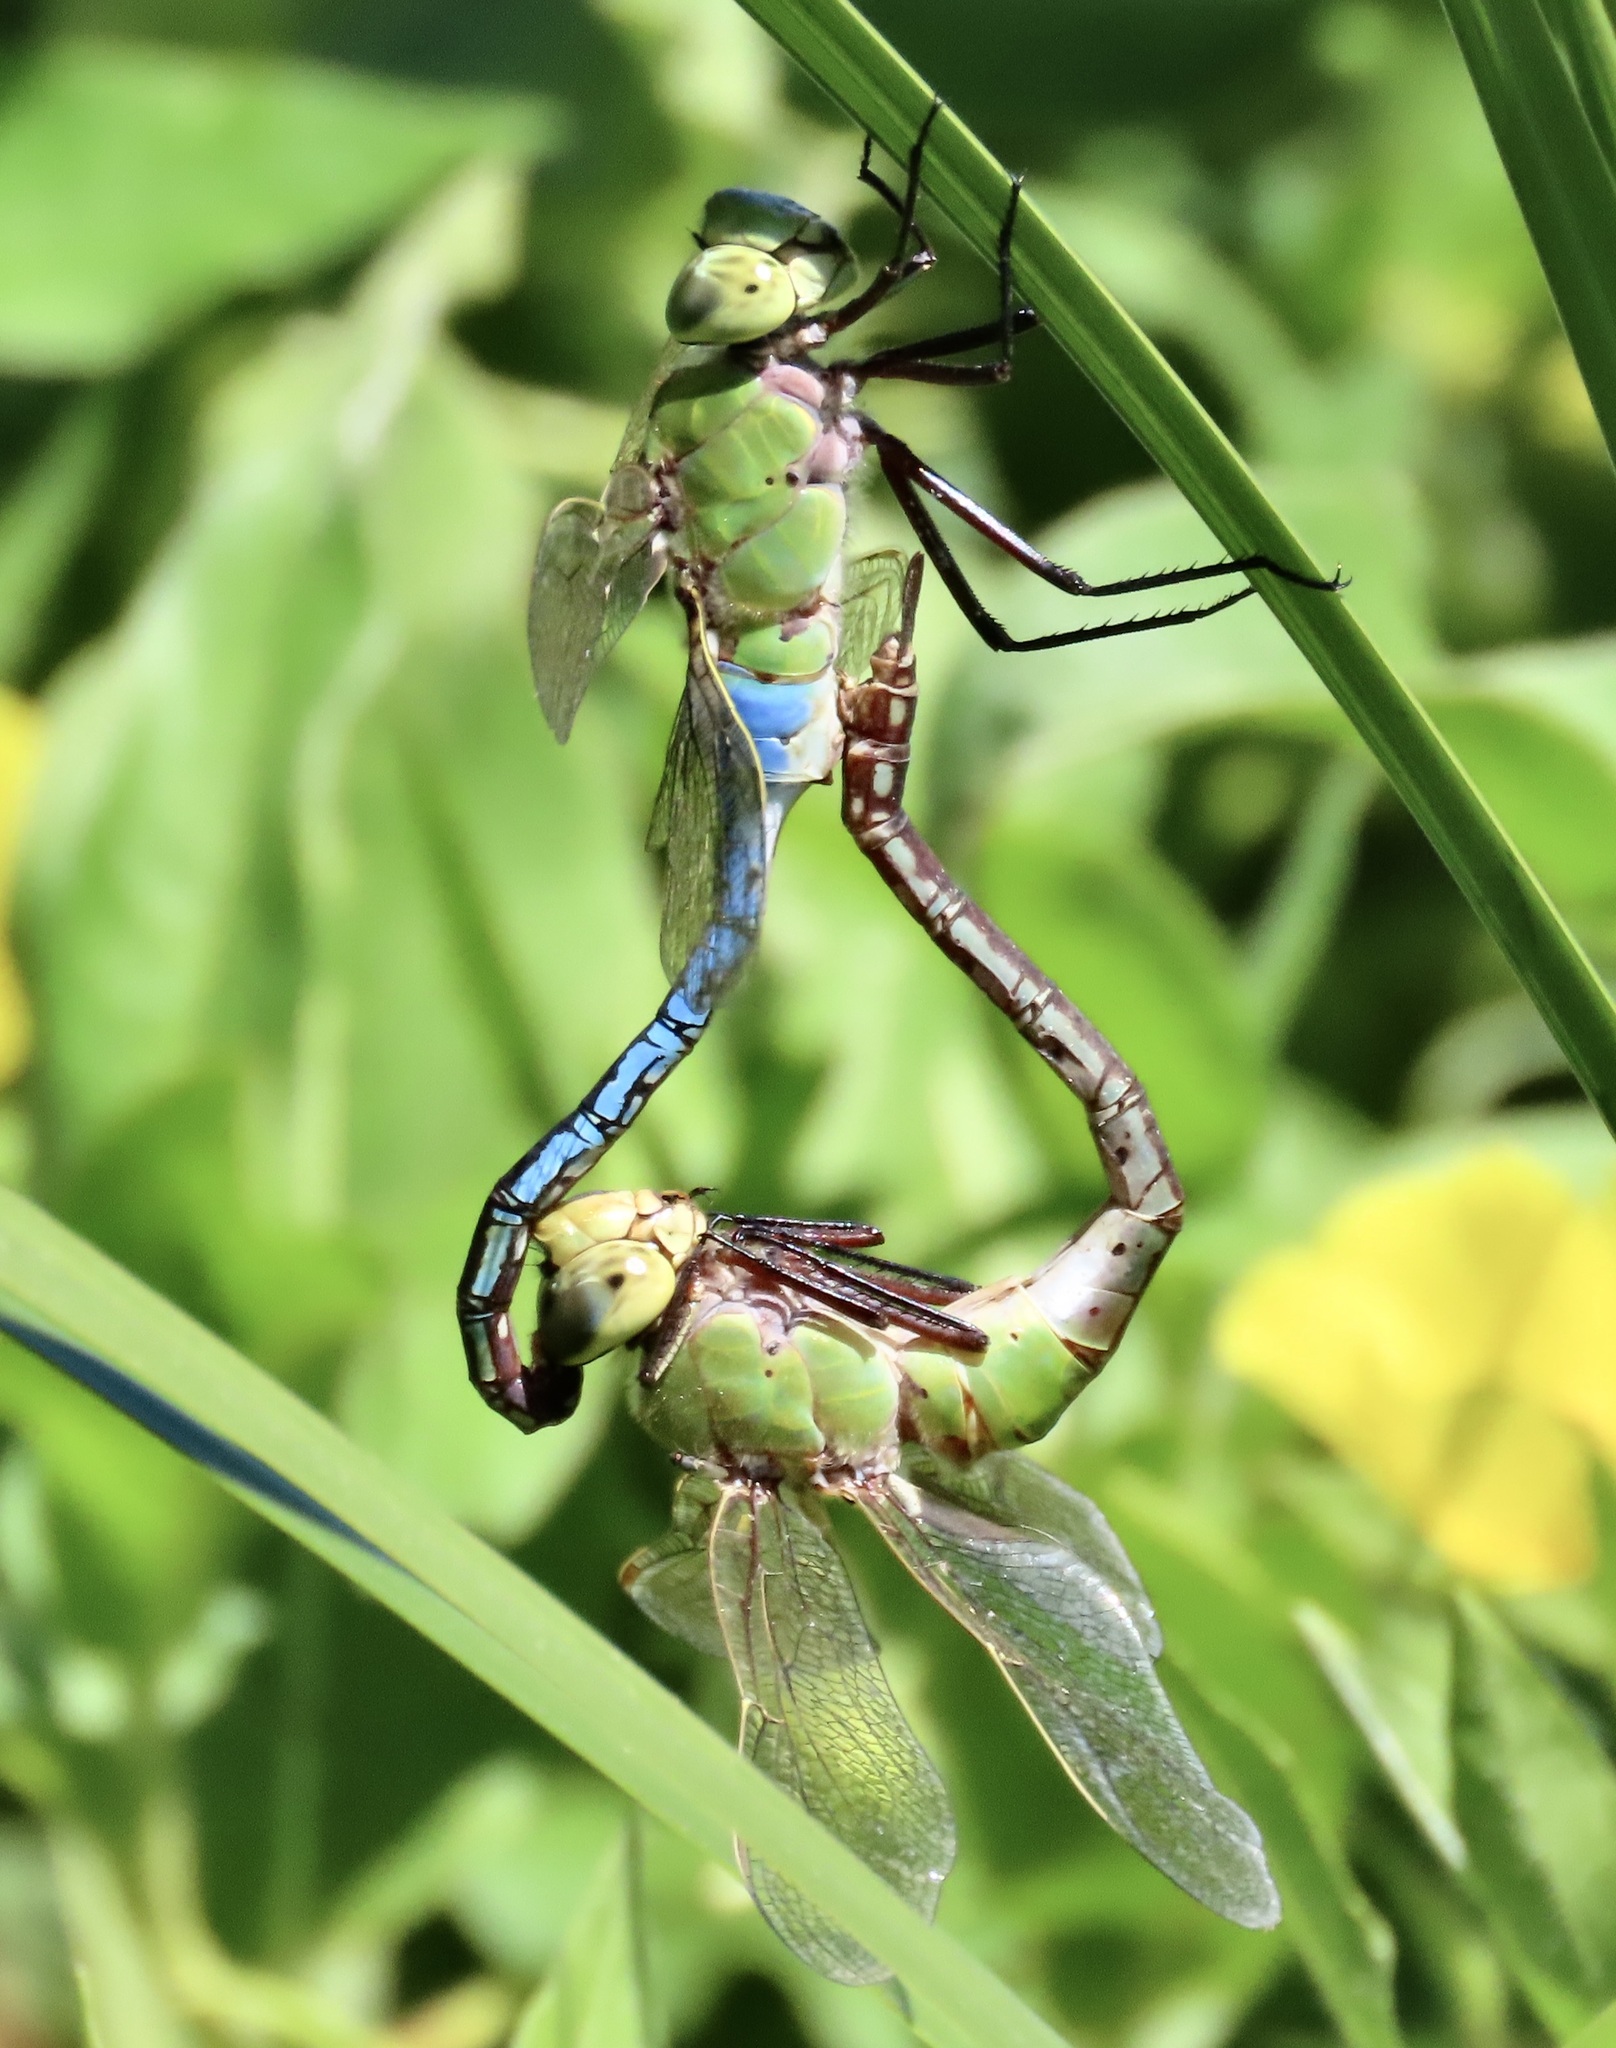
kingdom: Animalia
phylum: Arthropoda
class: Insecta
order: Odonata
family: Aeshnidae
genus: Anax
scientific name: Anax junius
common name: Common green darner
